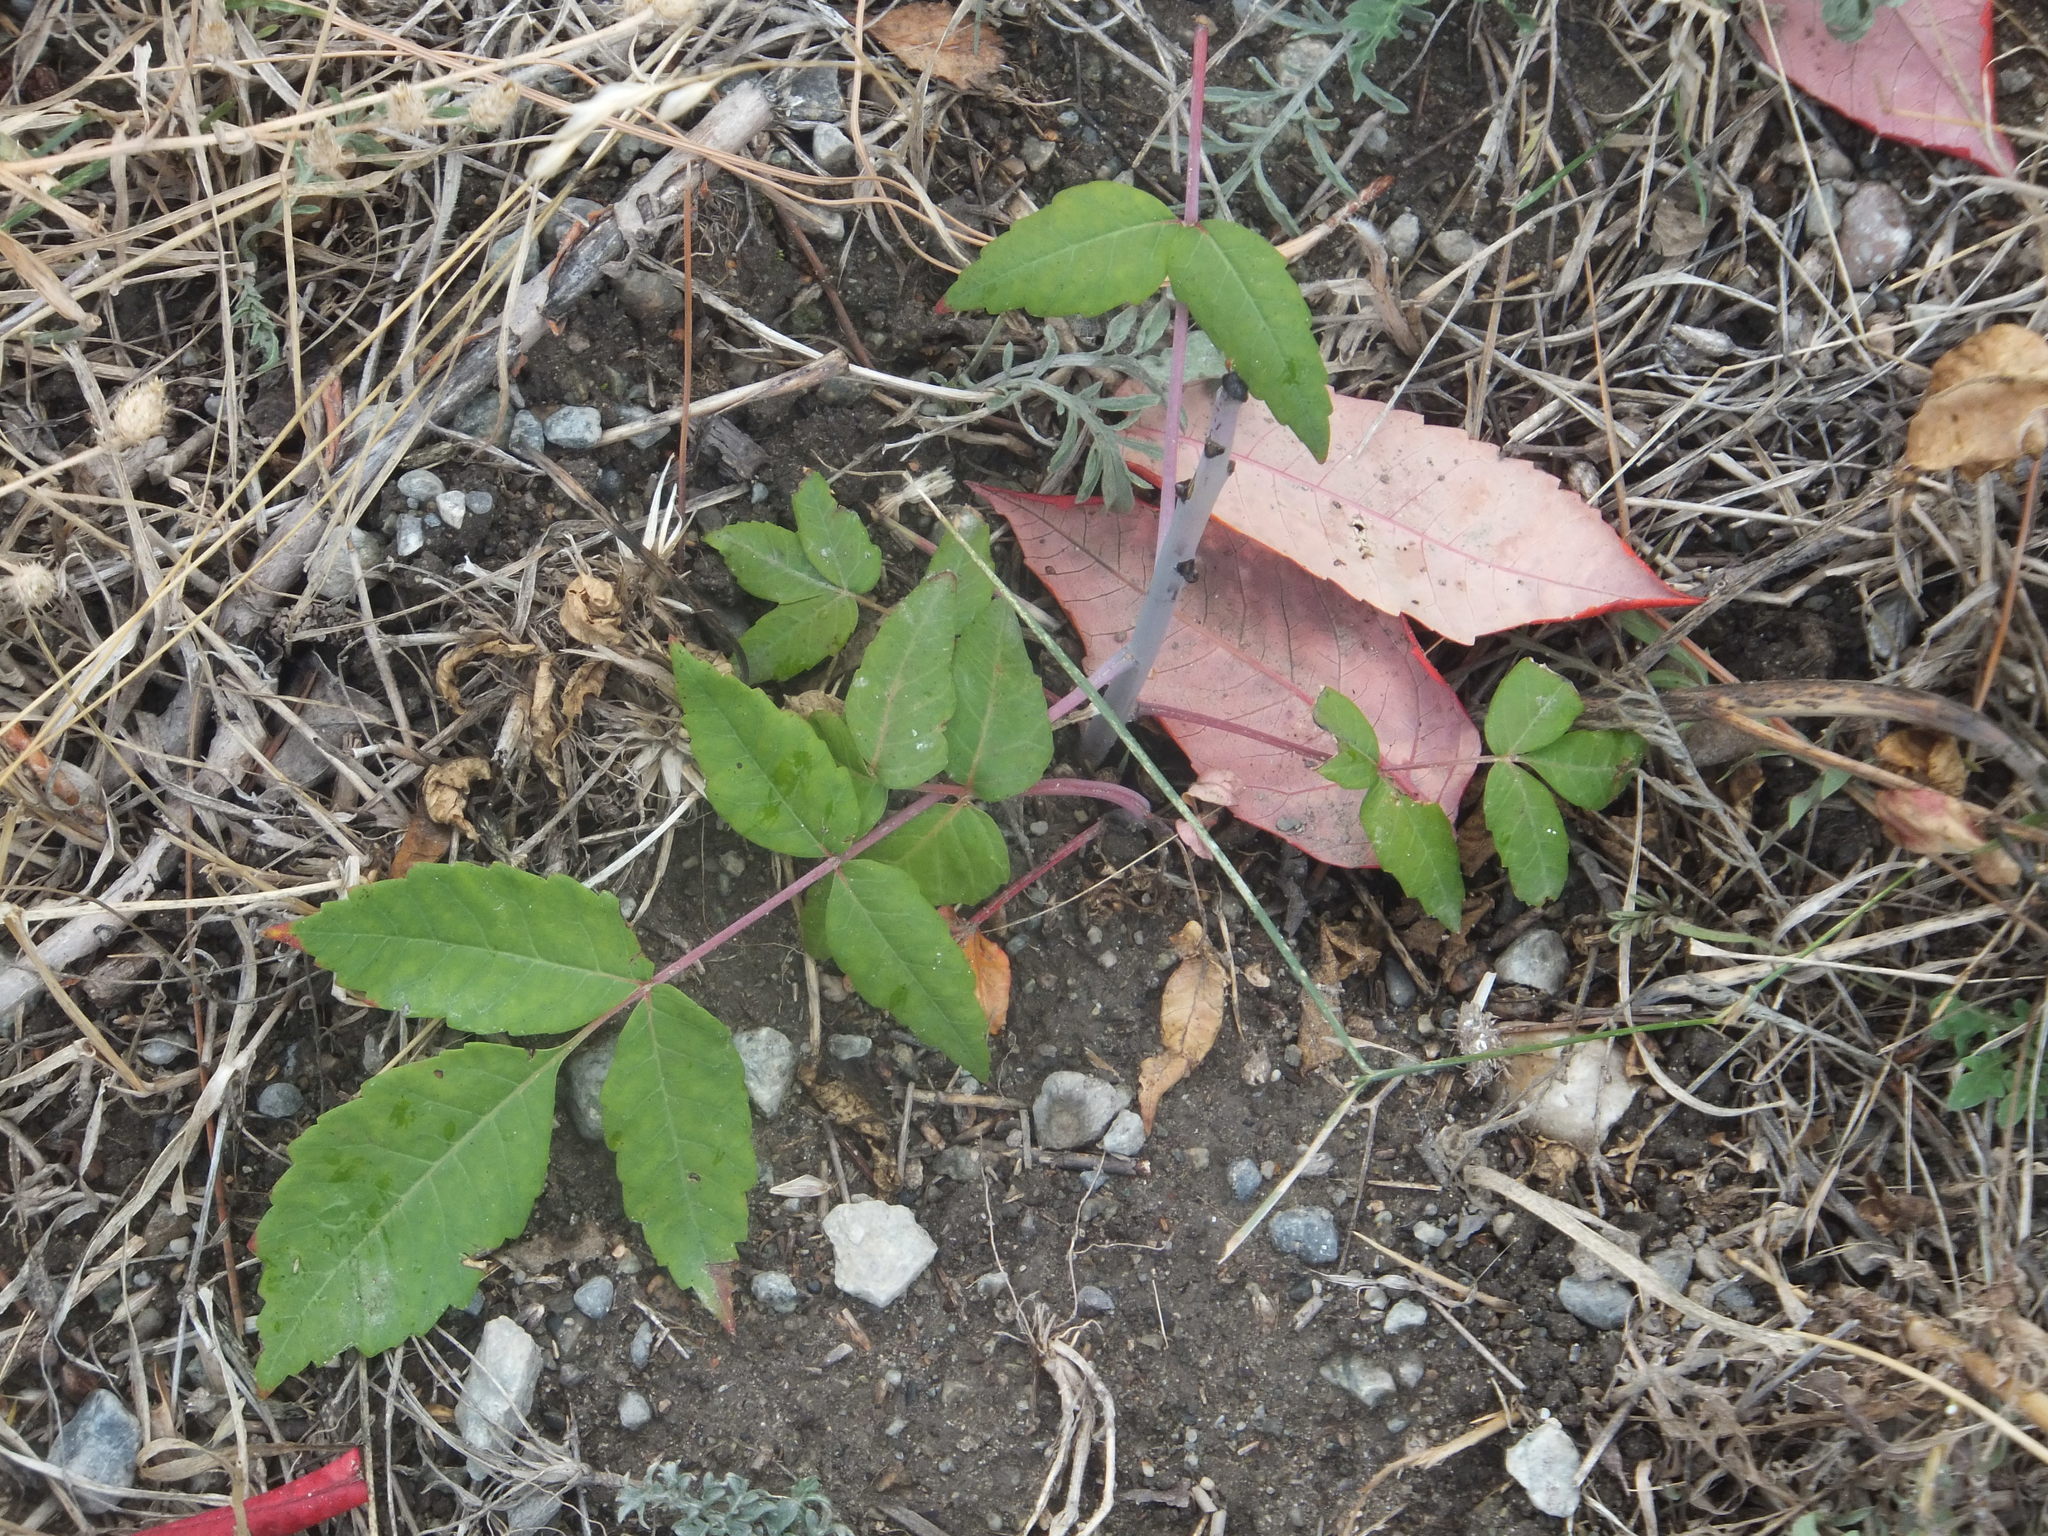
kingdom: Plantae
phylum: Tracheophyta
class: Magnoliopsida
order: Sapindales
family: Anacardiaceae
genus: Rhus
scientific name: Rhus glabra
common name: Scarlet sumac
